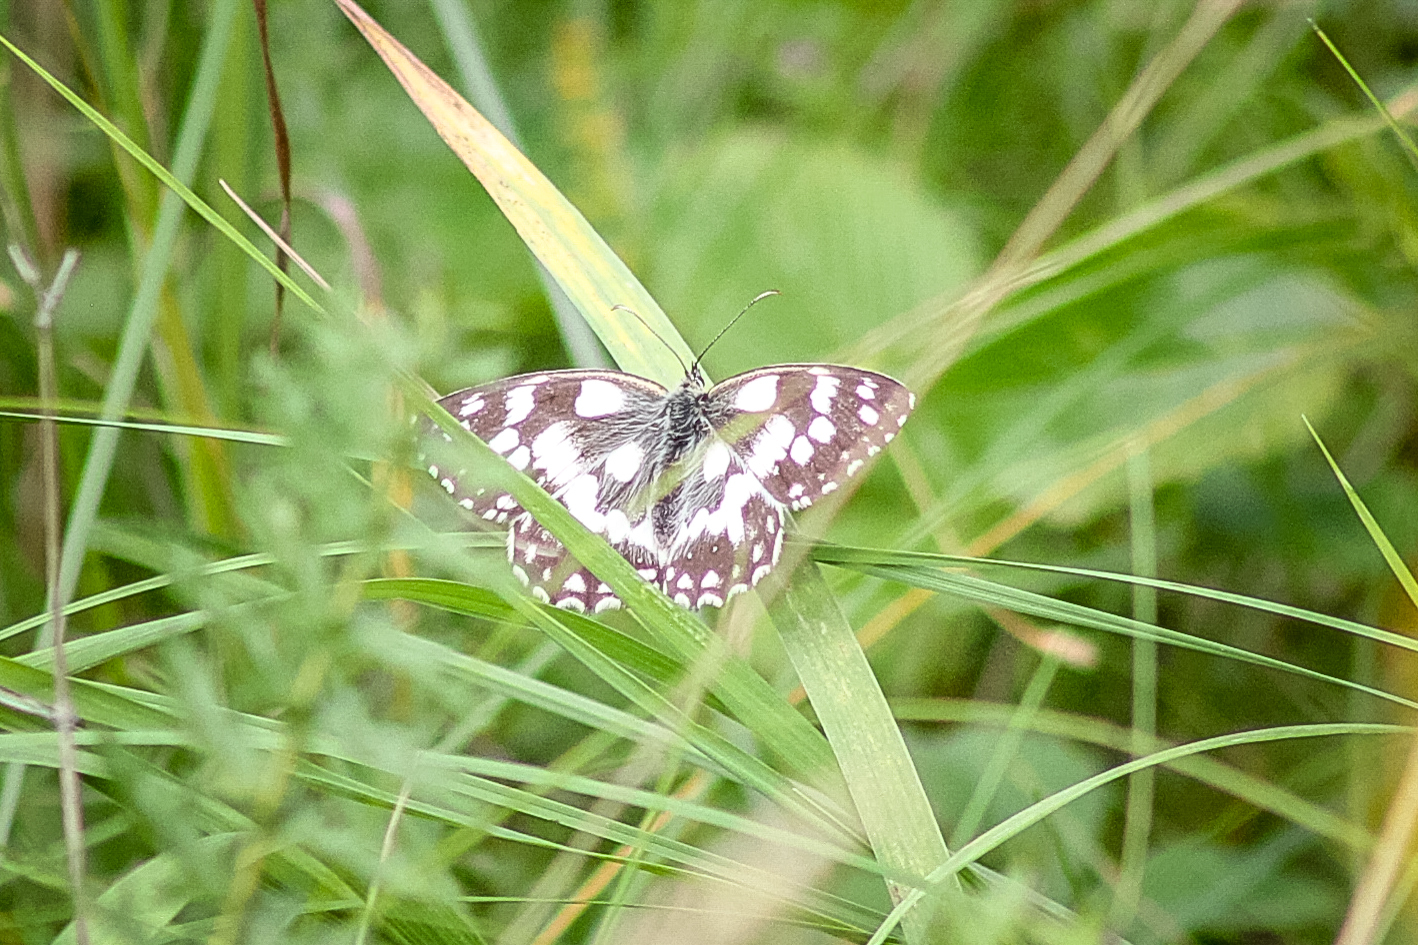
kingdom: Animalia
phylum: Arthropoda
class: Insecta
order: Lepidoptera
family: Nymphalidae
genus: Melanargia
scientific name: Melanargia galathea
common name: Marbled white
